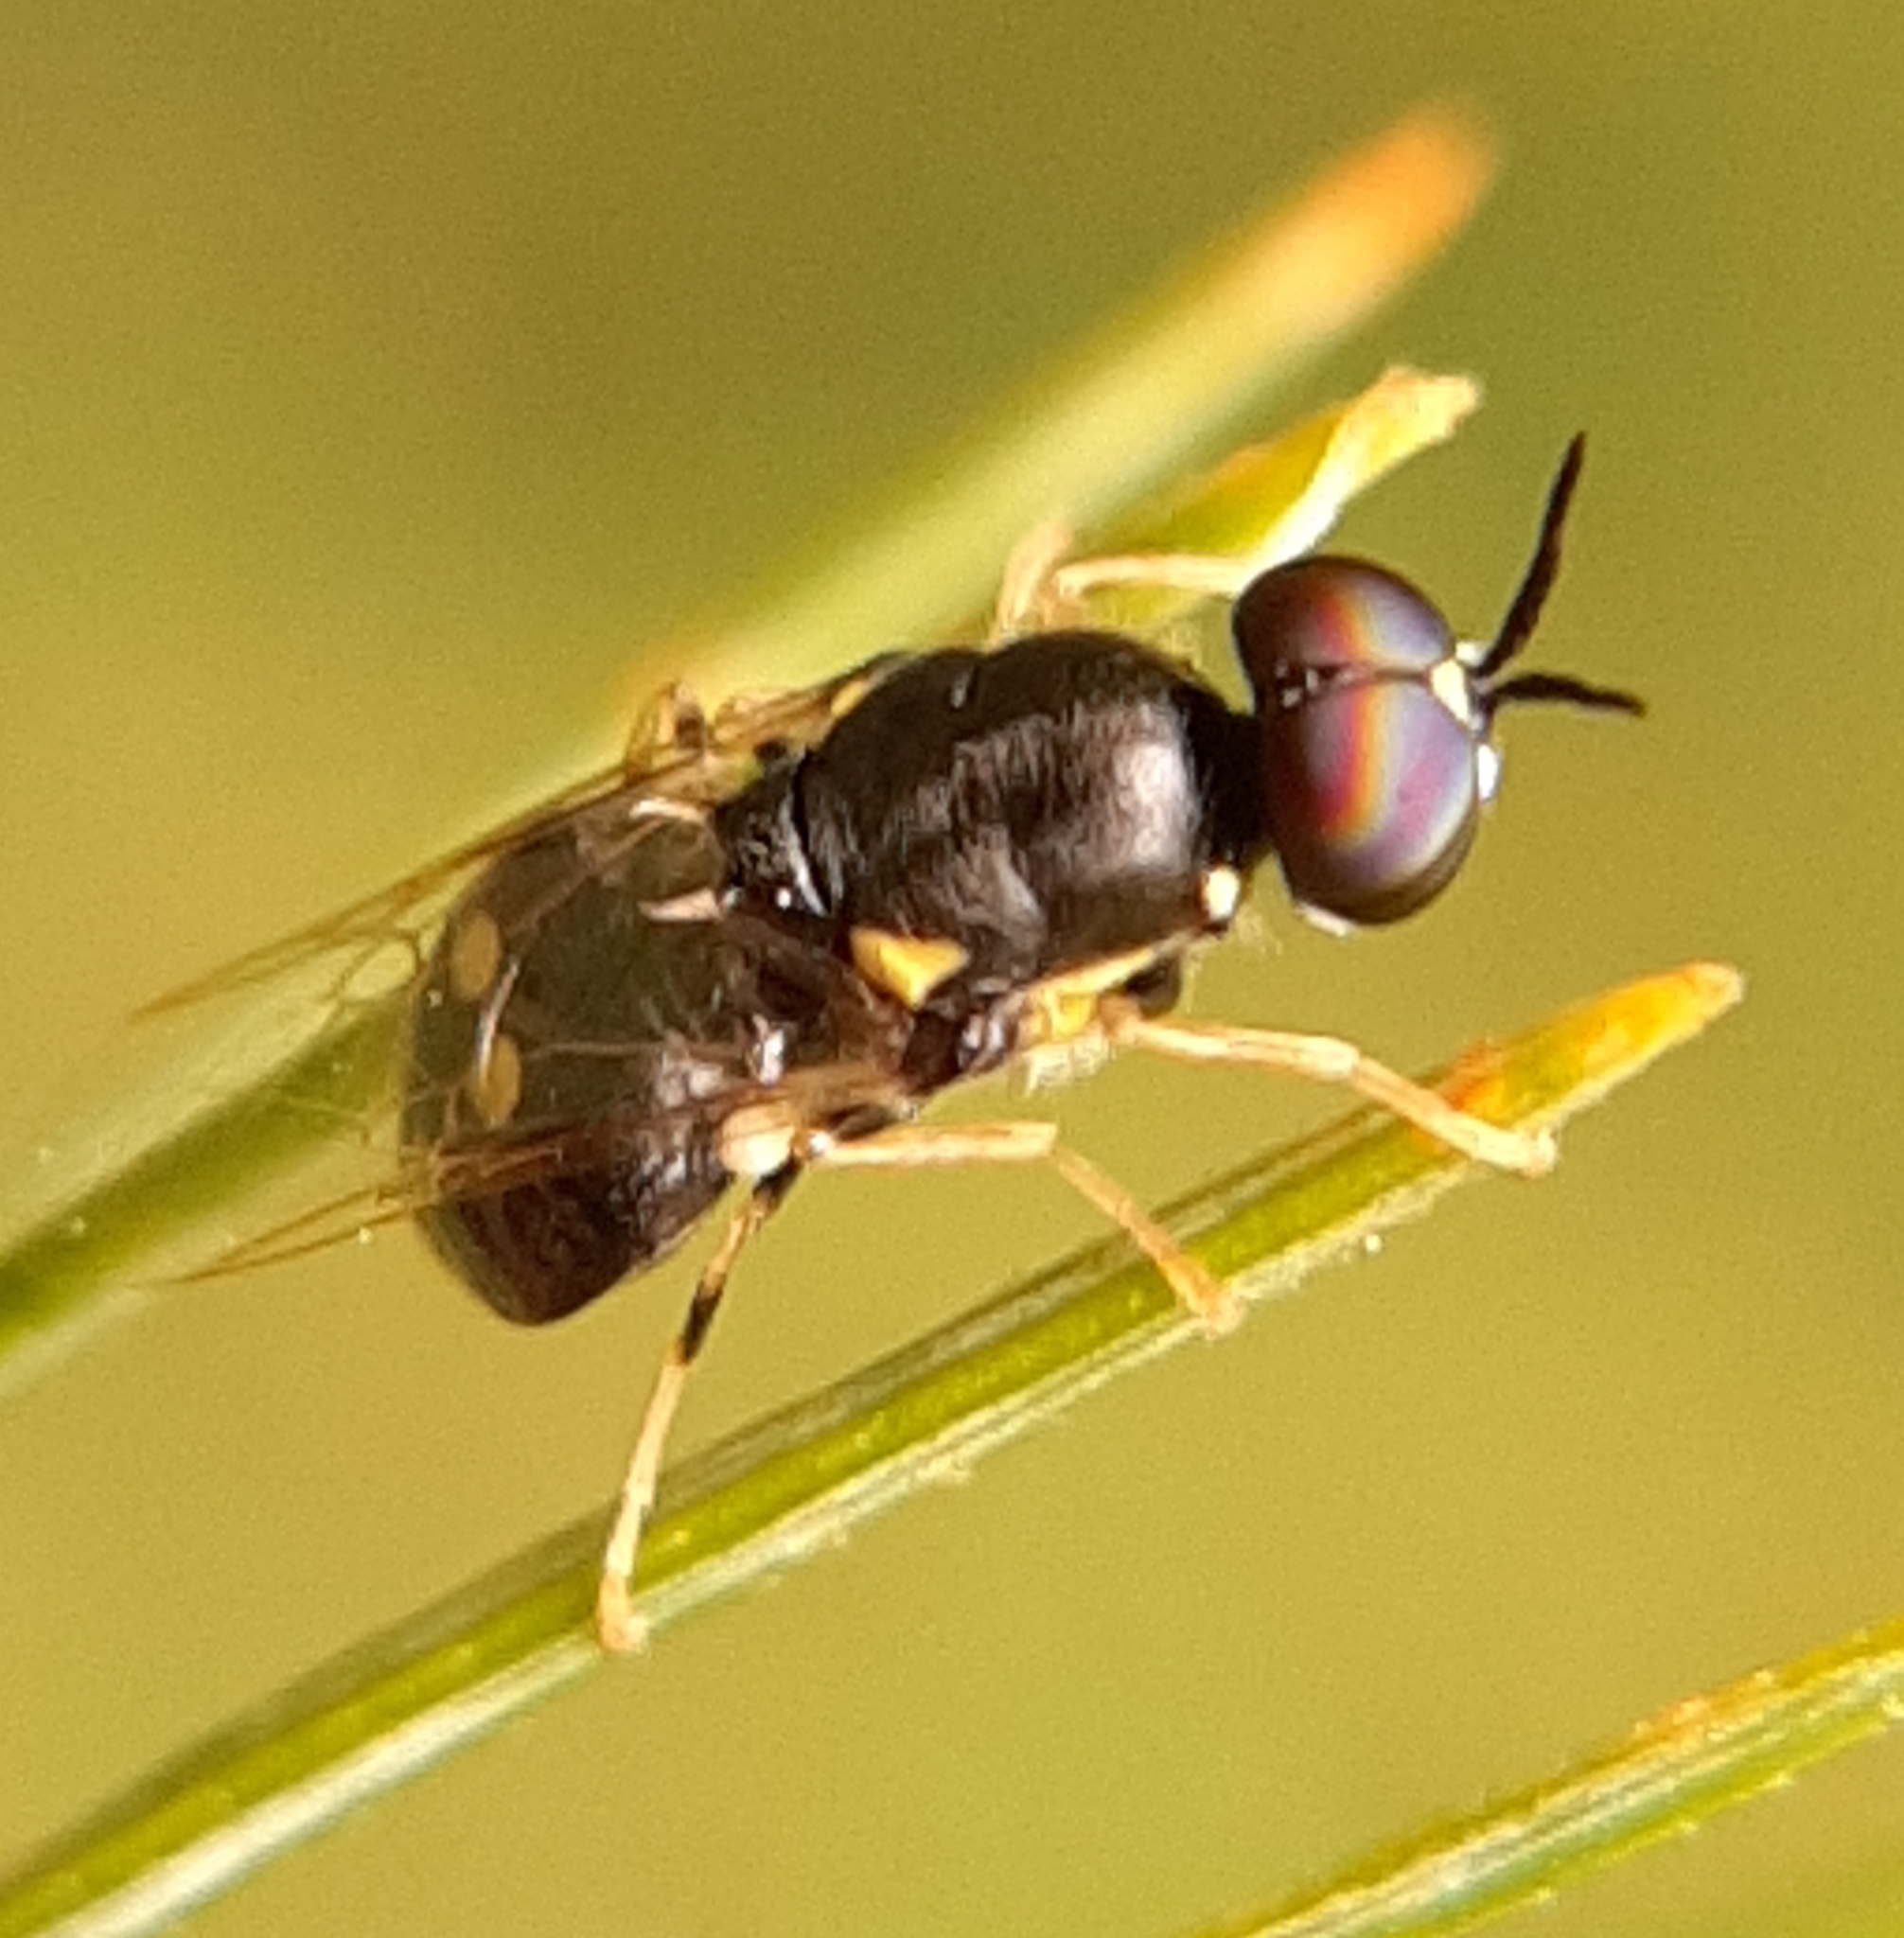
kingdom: Animalia
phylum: Arthropoda
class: Insecta
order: Diptera
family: Stratiomyidae
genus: Caloparyphus
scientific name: Caloparyphus tetraspilus
